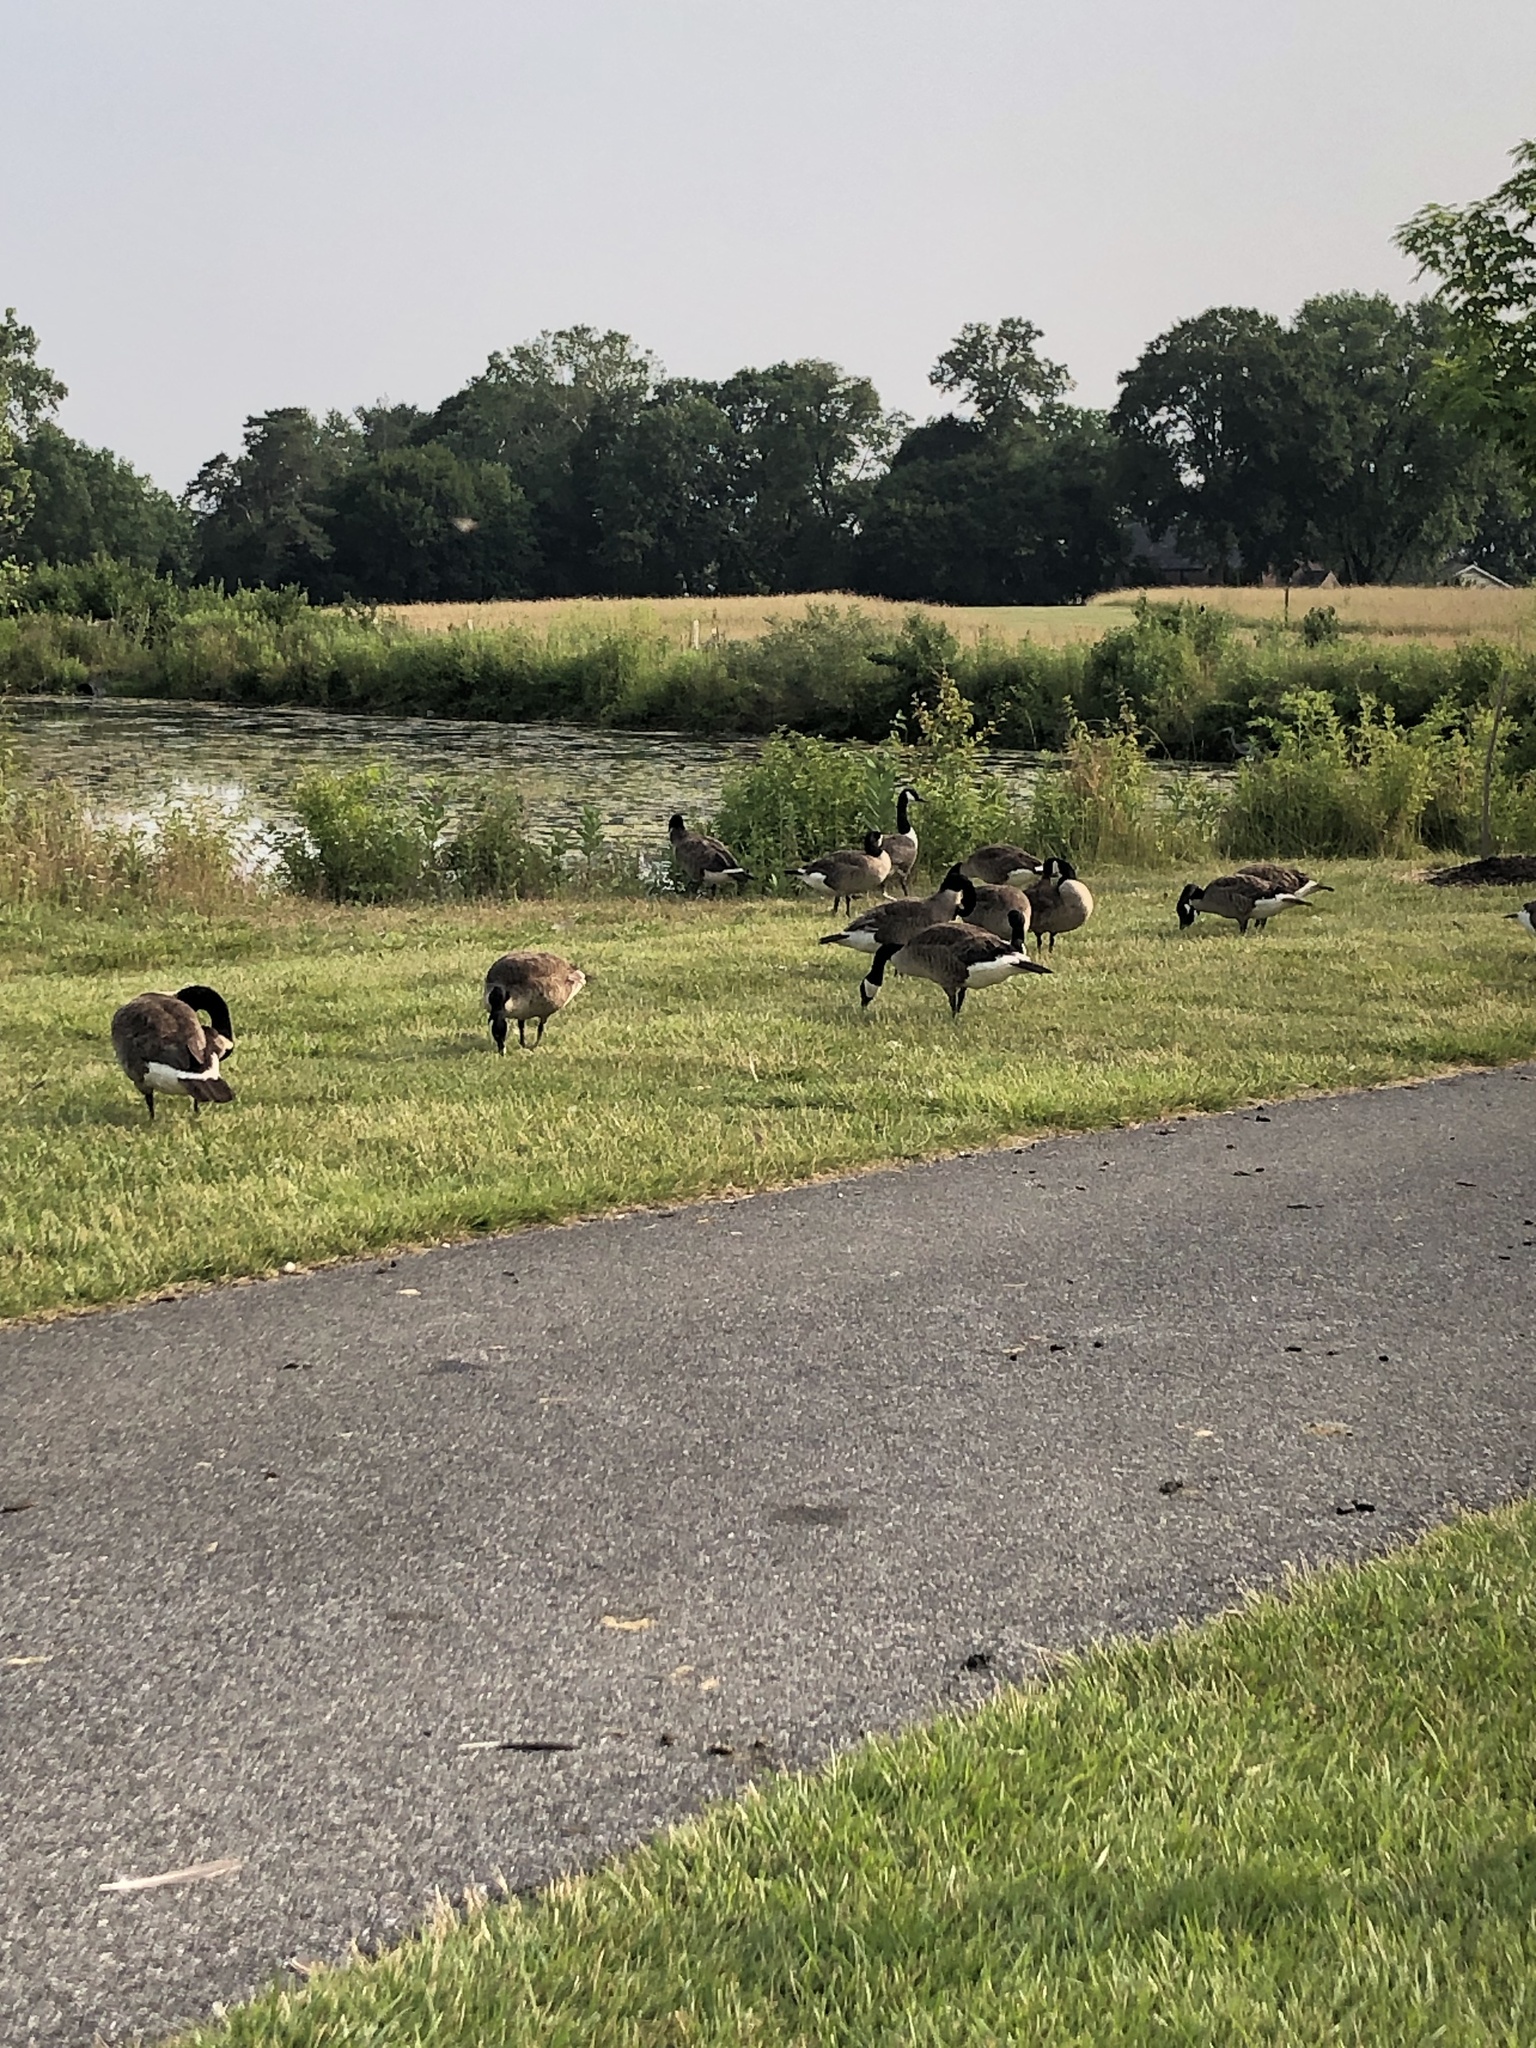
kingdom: Animalia
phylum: Chordata
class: Aves
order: Anseriformes
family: Anatidae
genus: Branta
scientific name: Branta canadensis
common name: Canada goose
